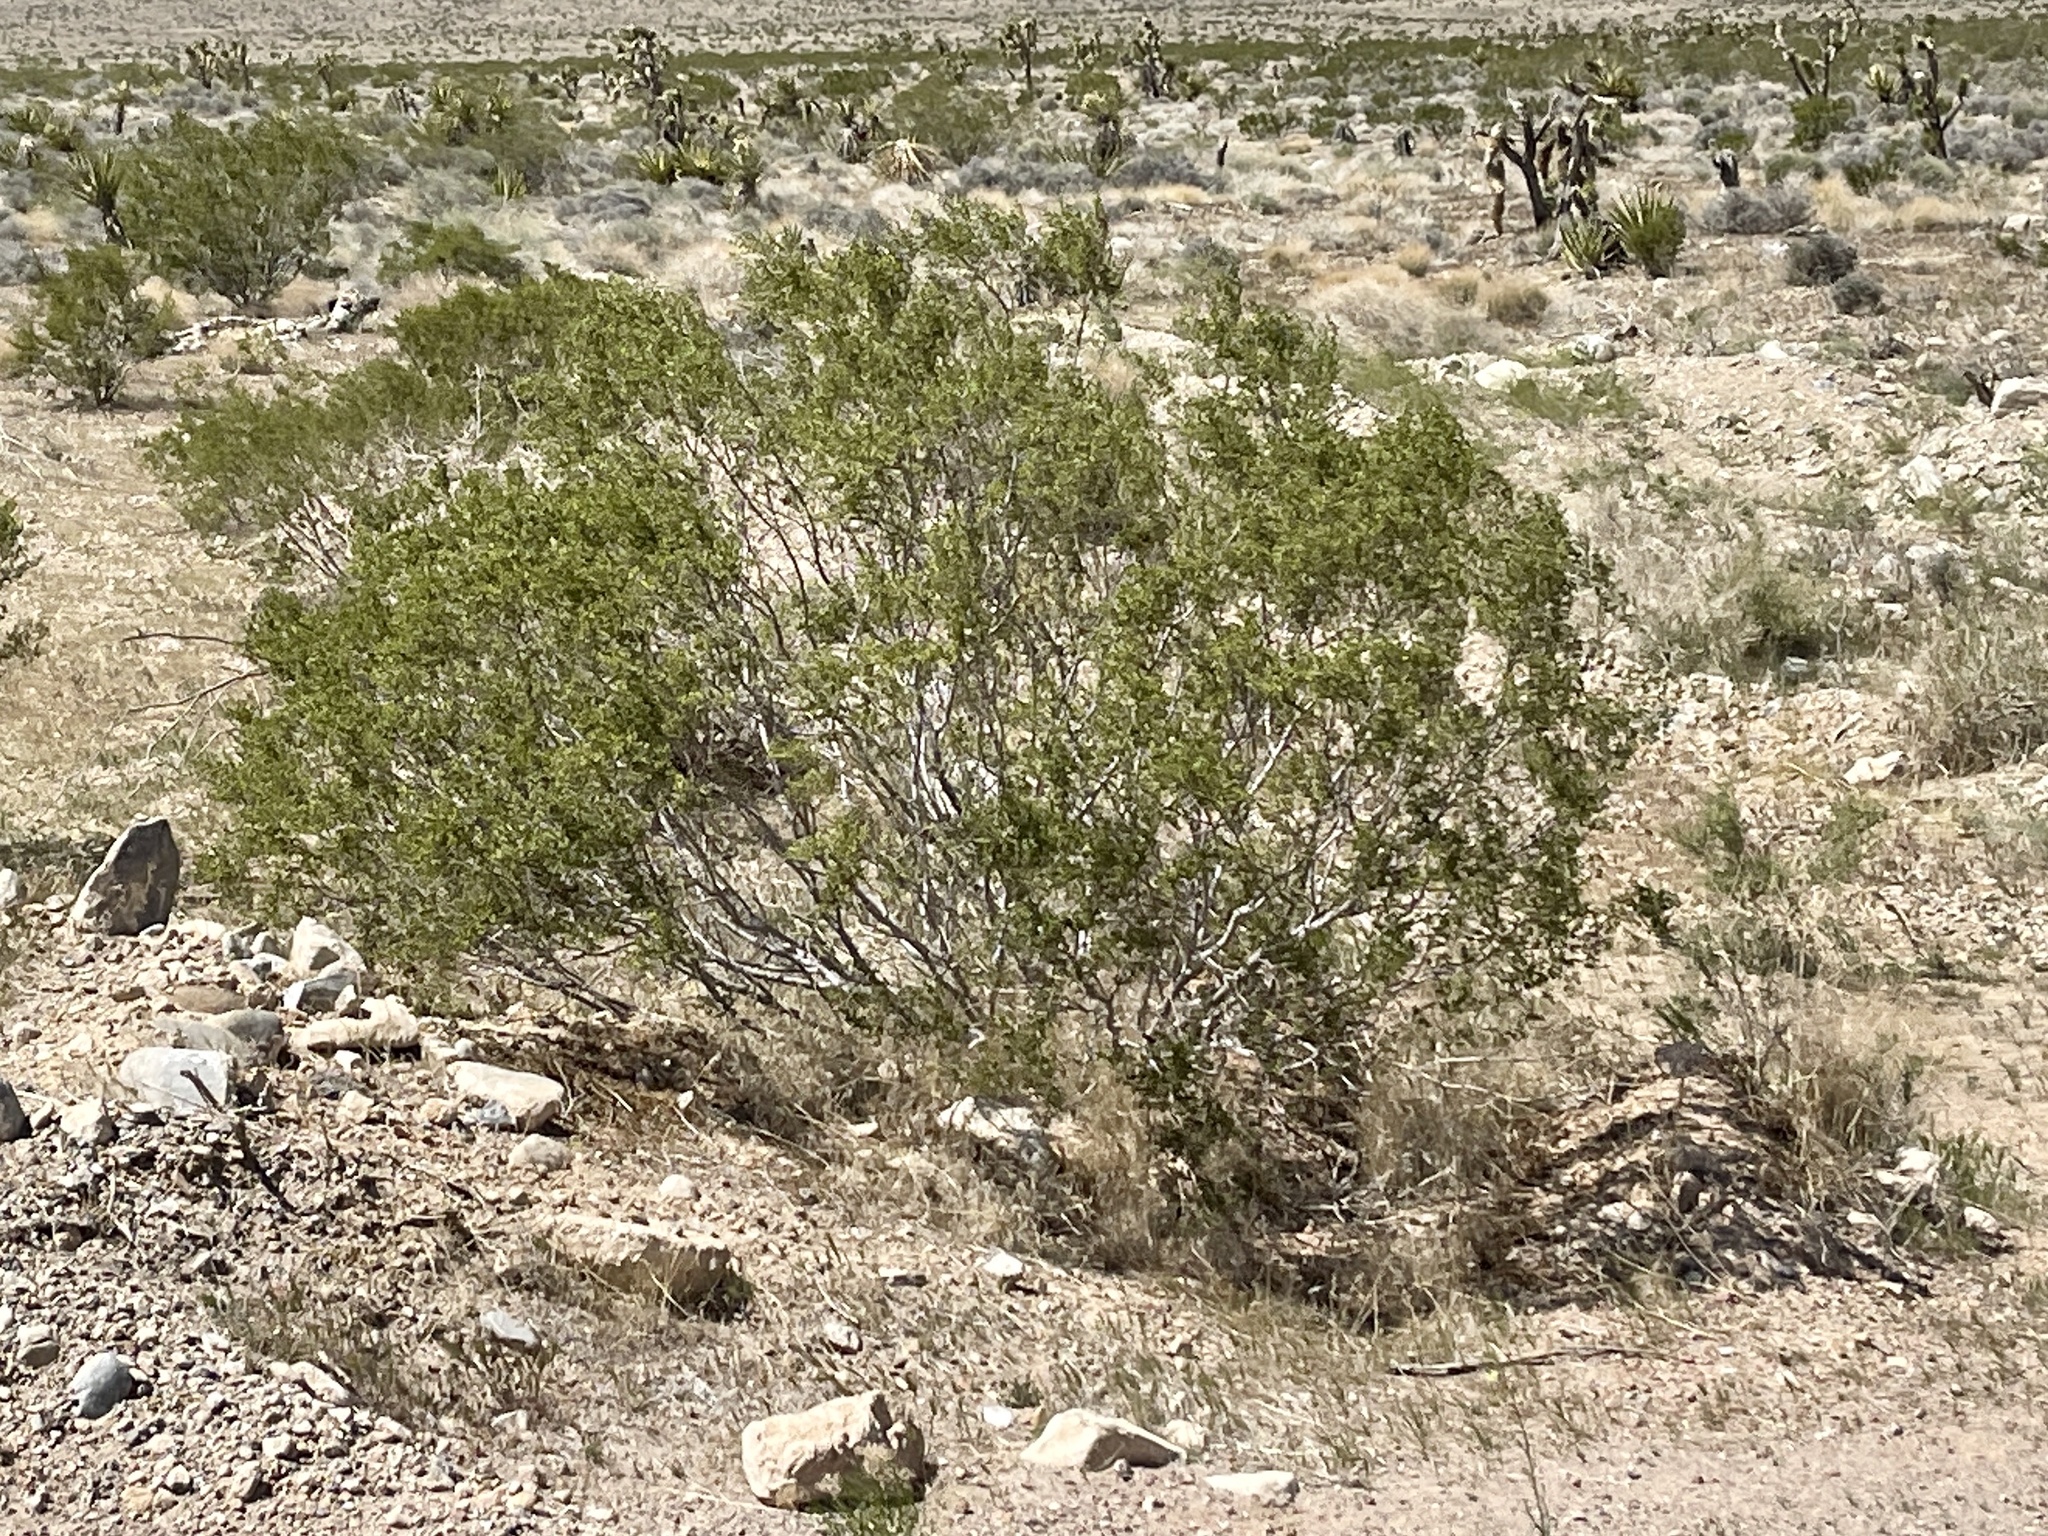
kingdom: Plantae
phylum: Tracheophyta
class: Magnoliopsida
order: Zygophyllales
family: Zygophyllaceae
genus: Larrea
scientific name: Larrea tridentata
